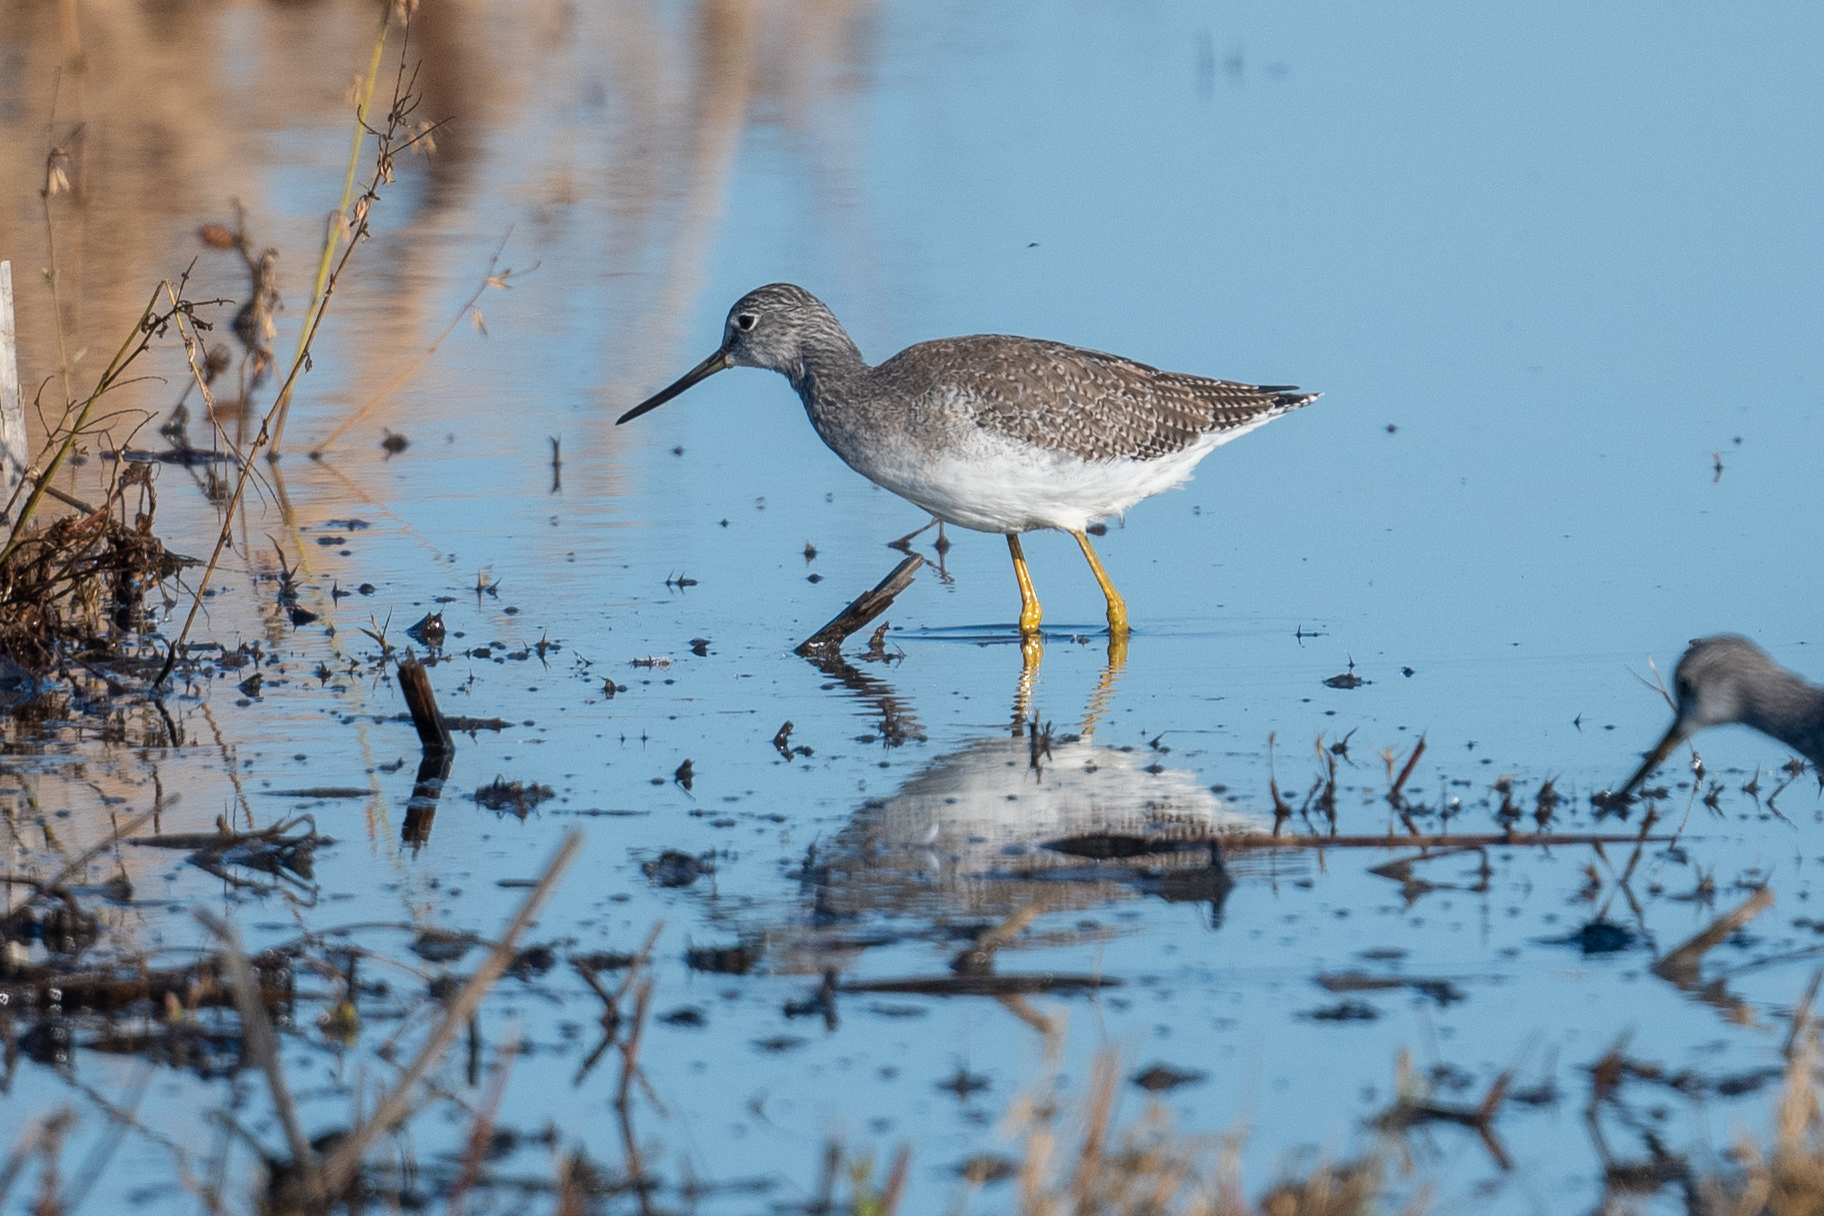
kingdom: Animalia
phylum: Chordata
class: Aves
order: Charadriiformes
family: Scolopacidae
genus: Tringa
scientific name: Tringa melanoleuca
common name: Greater yellowlegs
